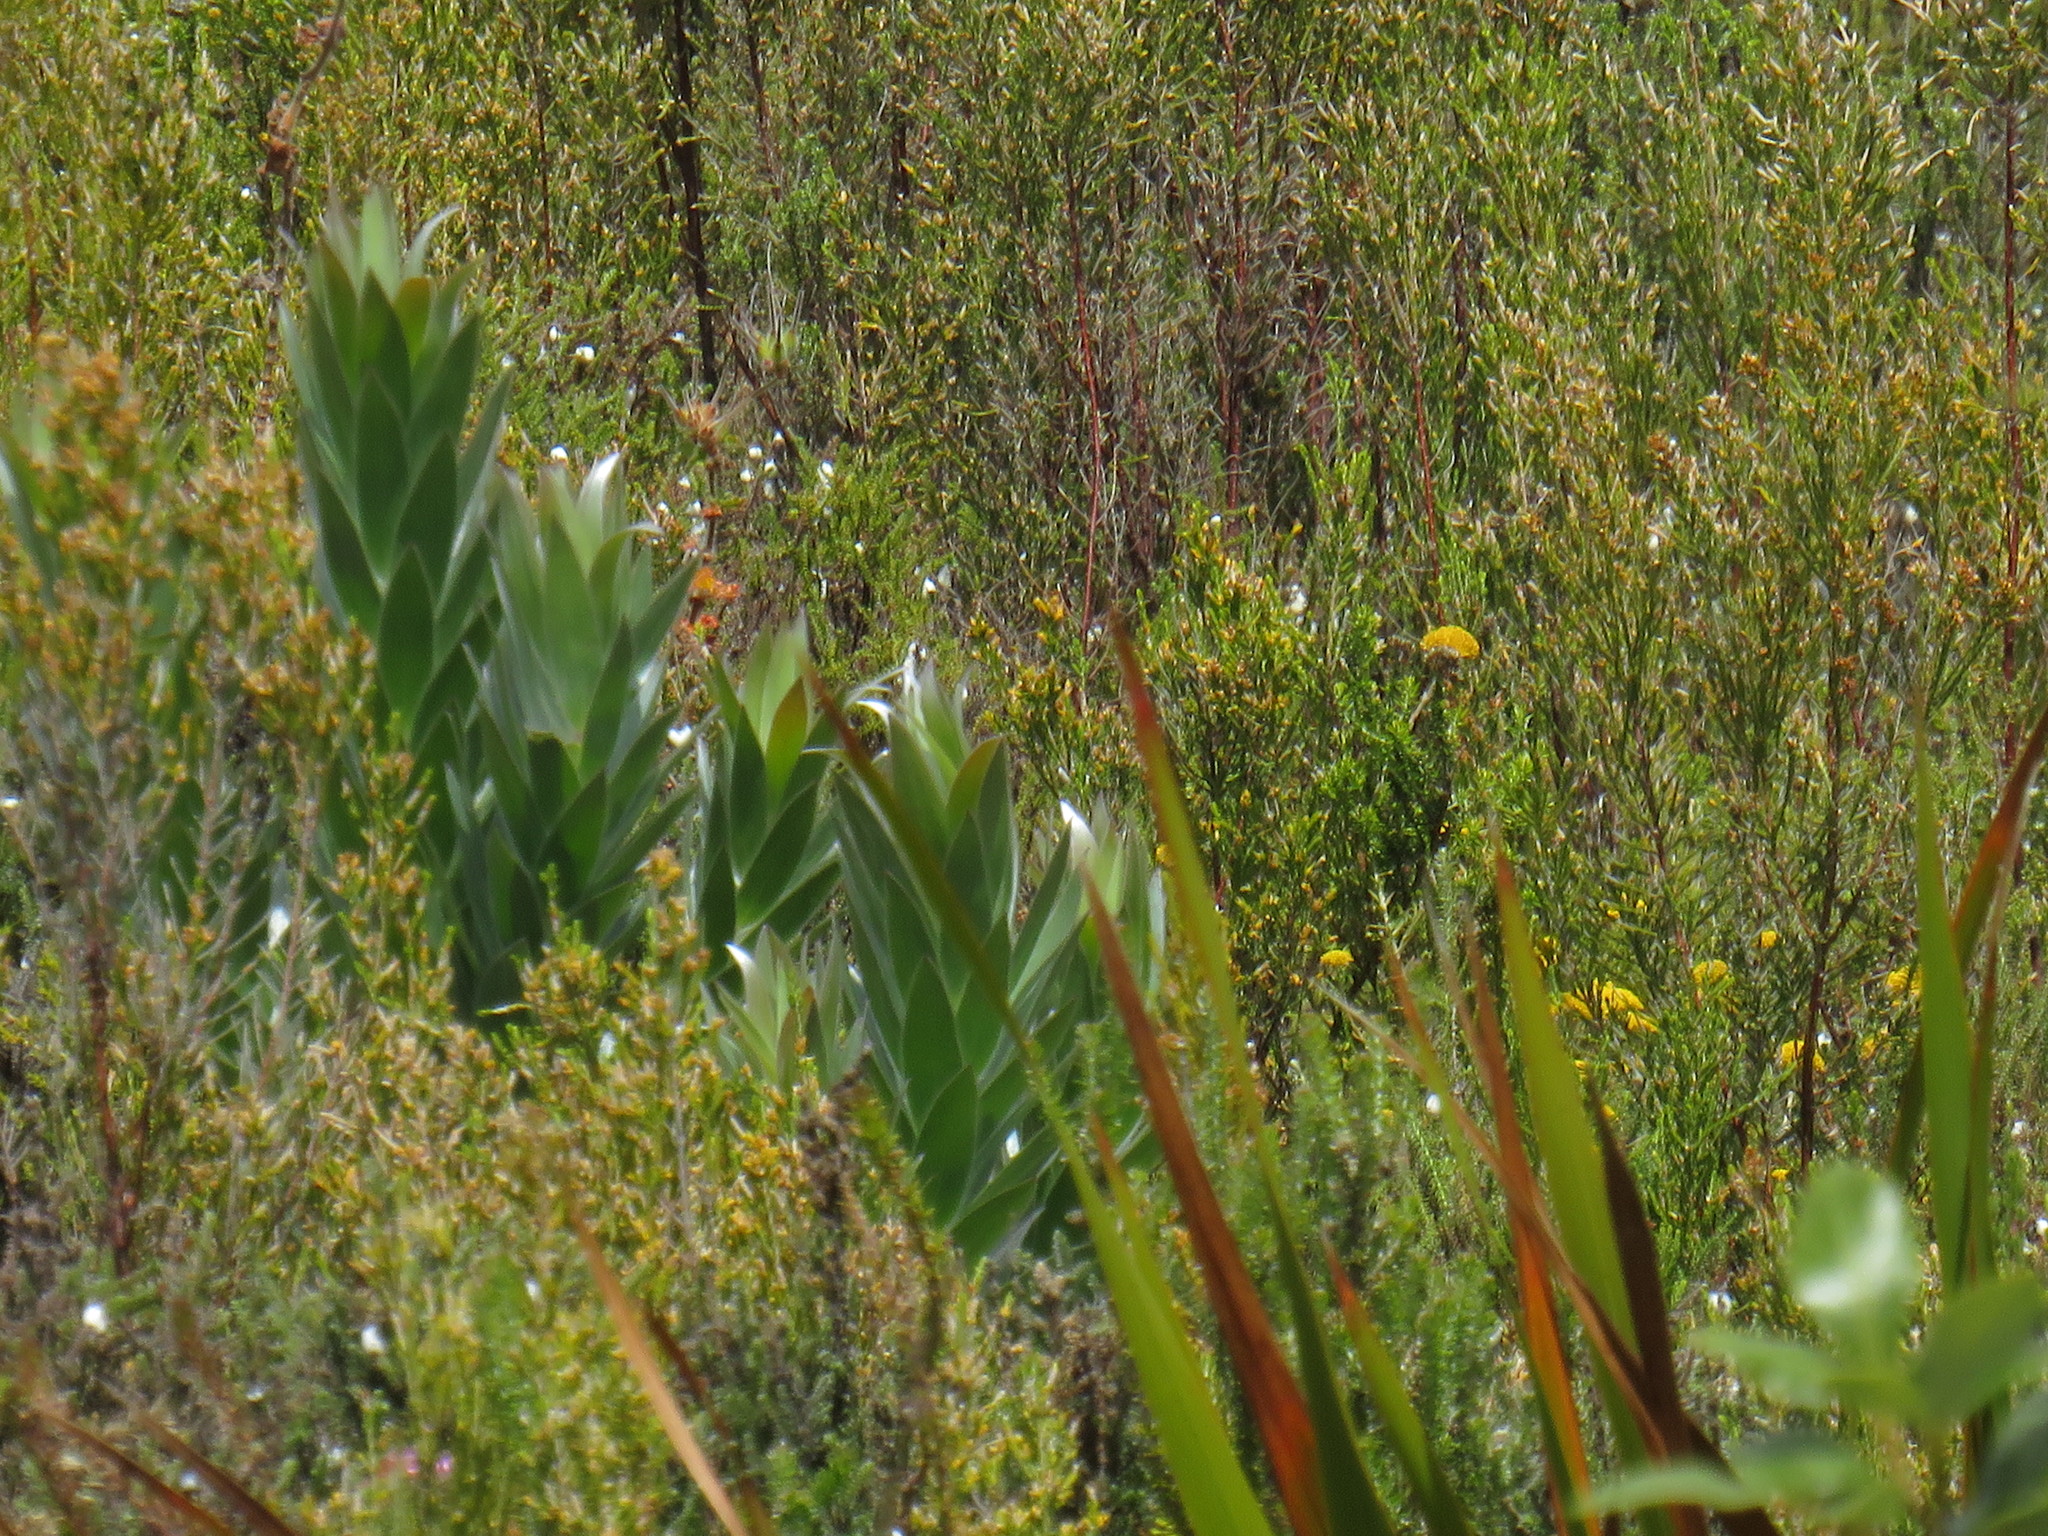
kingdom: Plantae
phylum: Tracheophyta
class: Magnoliopsida
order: Proteales
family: Proteaceae
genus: Leucadendron
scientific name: Leucadendron argenteum
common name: Cape silver tree
